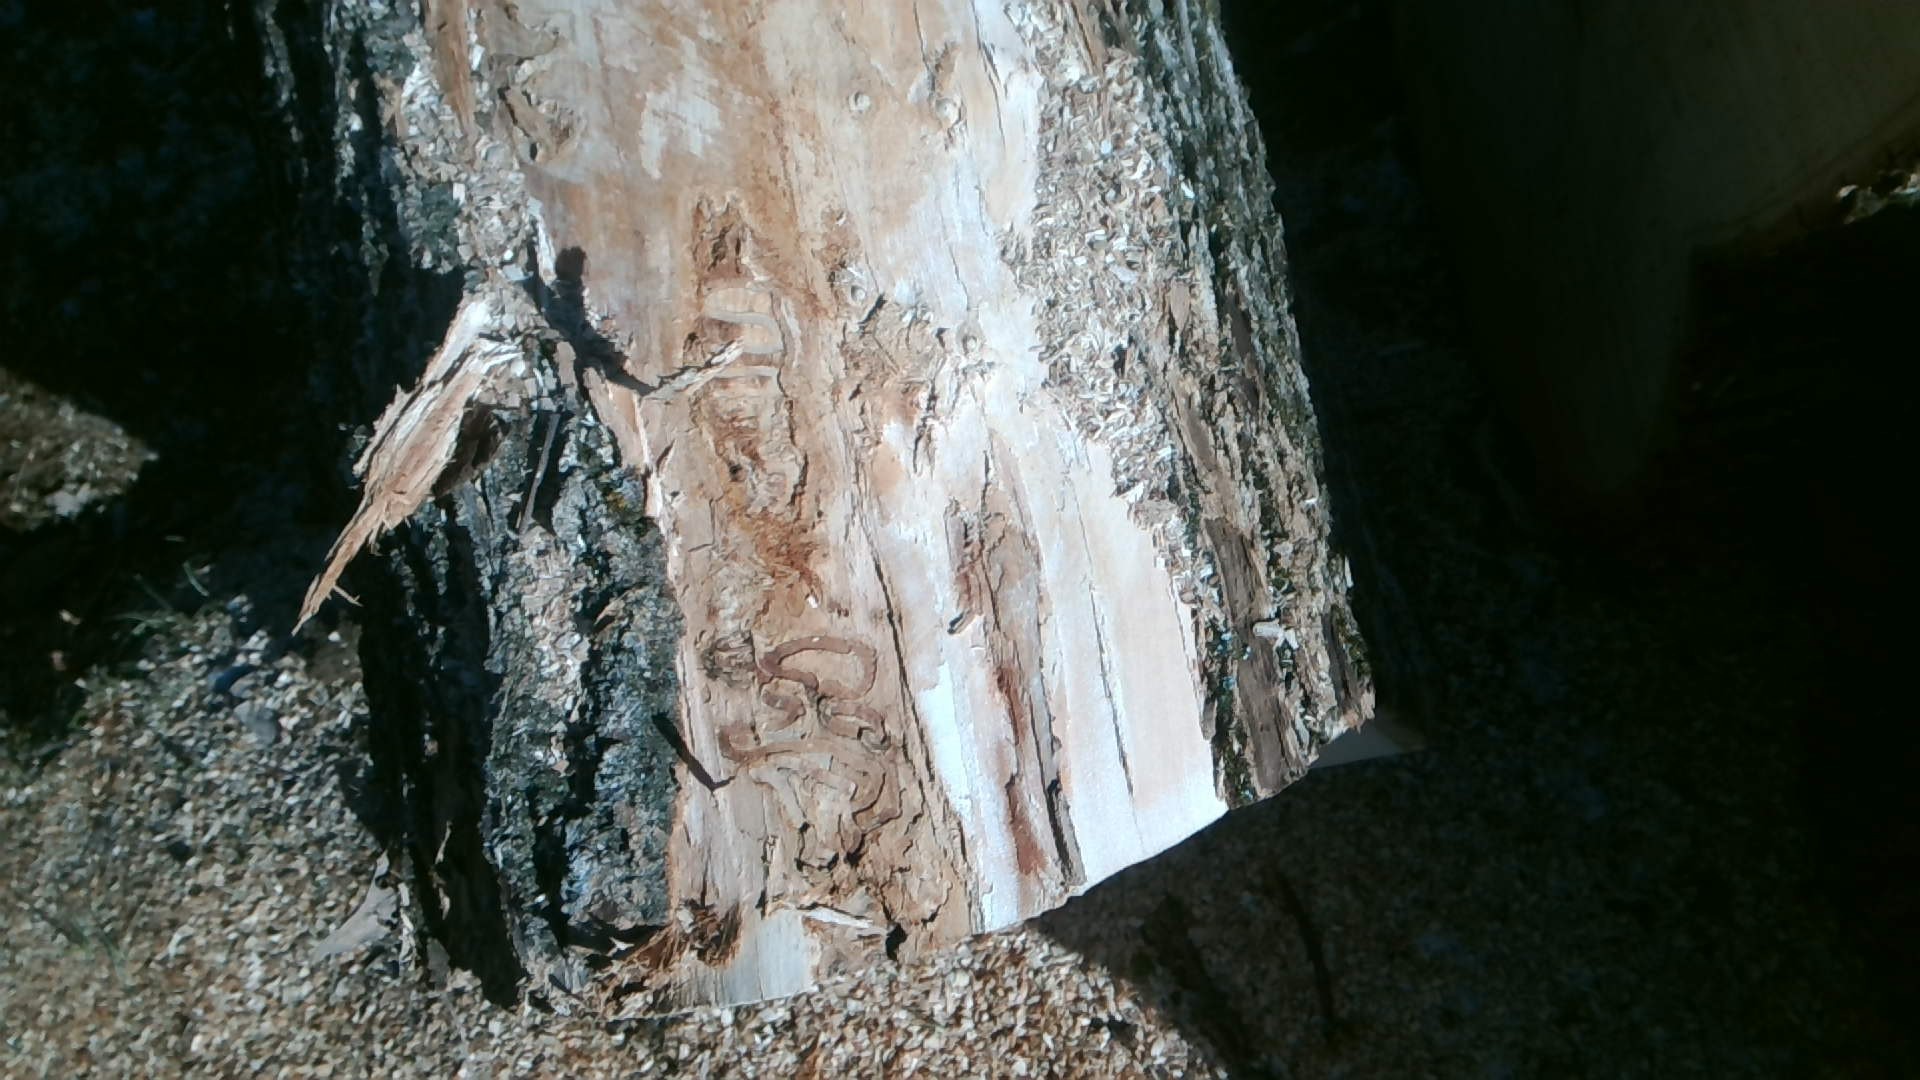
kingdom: Animalia
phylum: Arthropoda
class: Insecta
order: Coleoptera
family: Buprestidae
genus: Agrilus
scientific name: Agrilus planipennis
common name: Emerald ash borer
